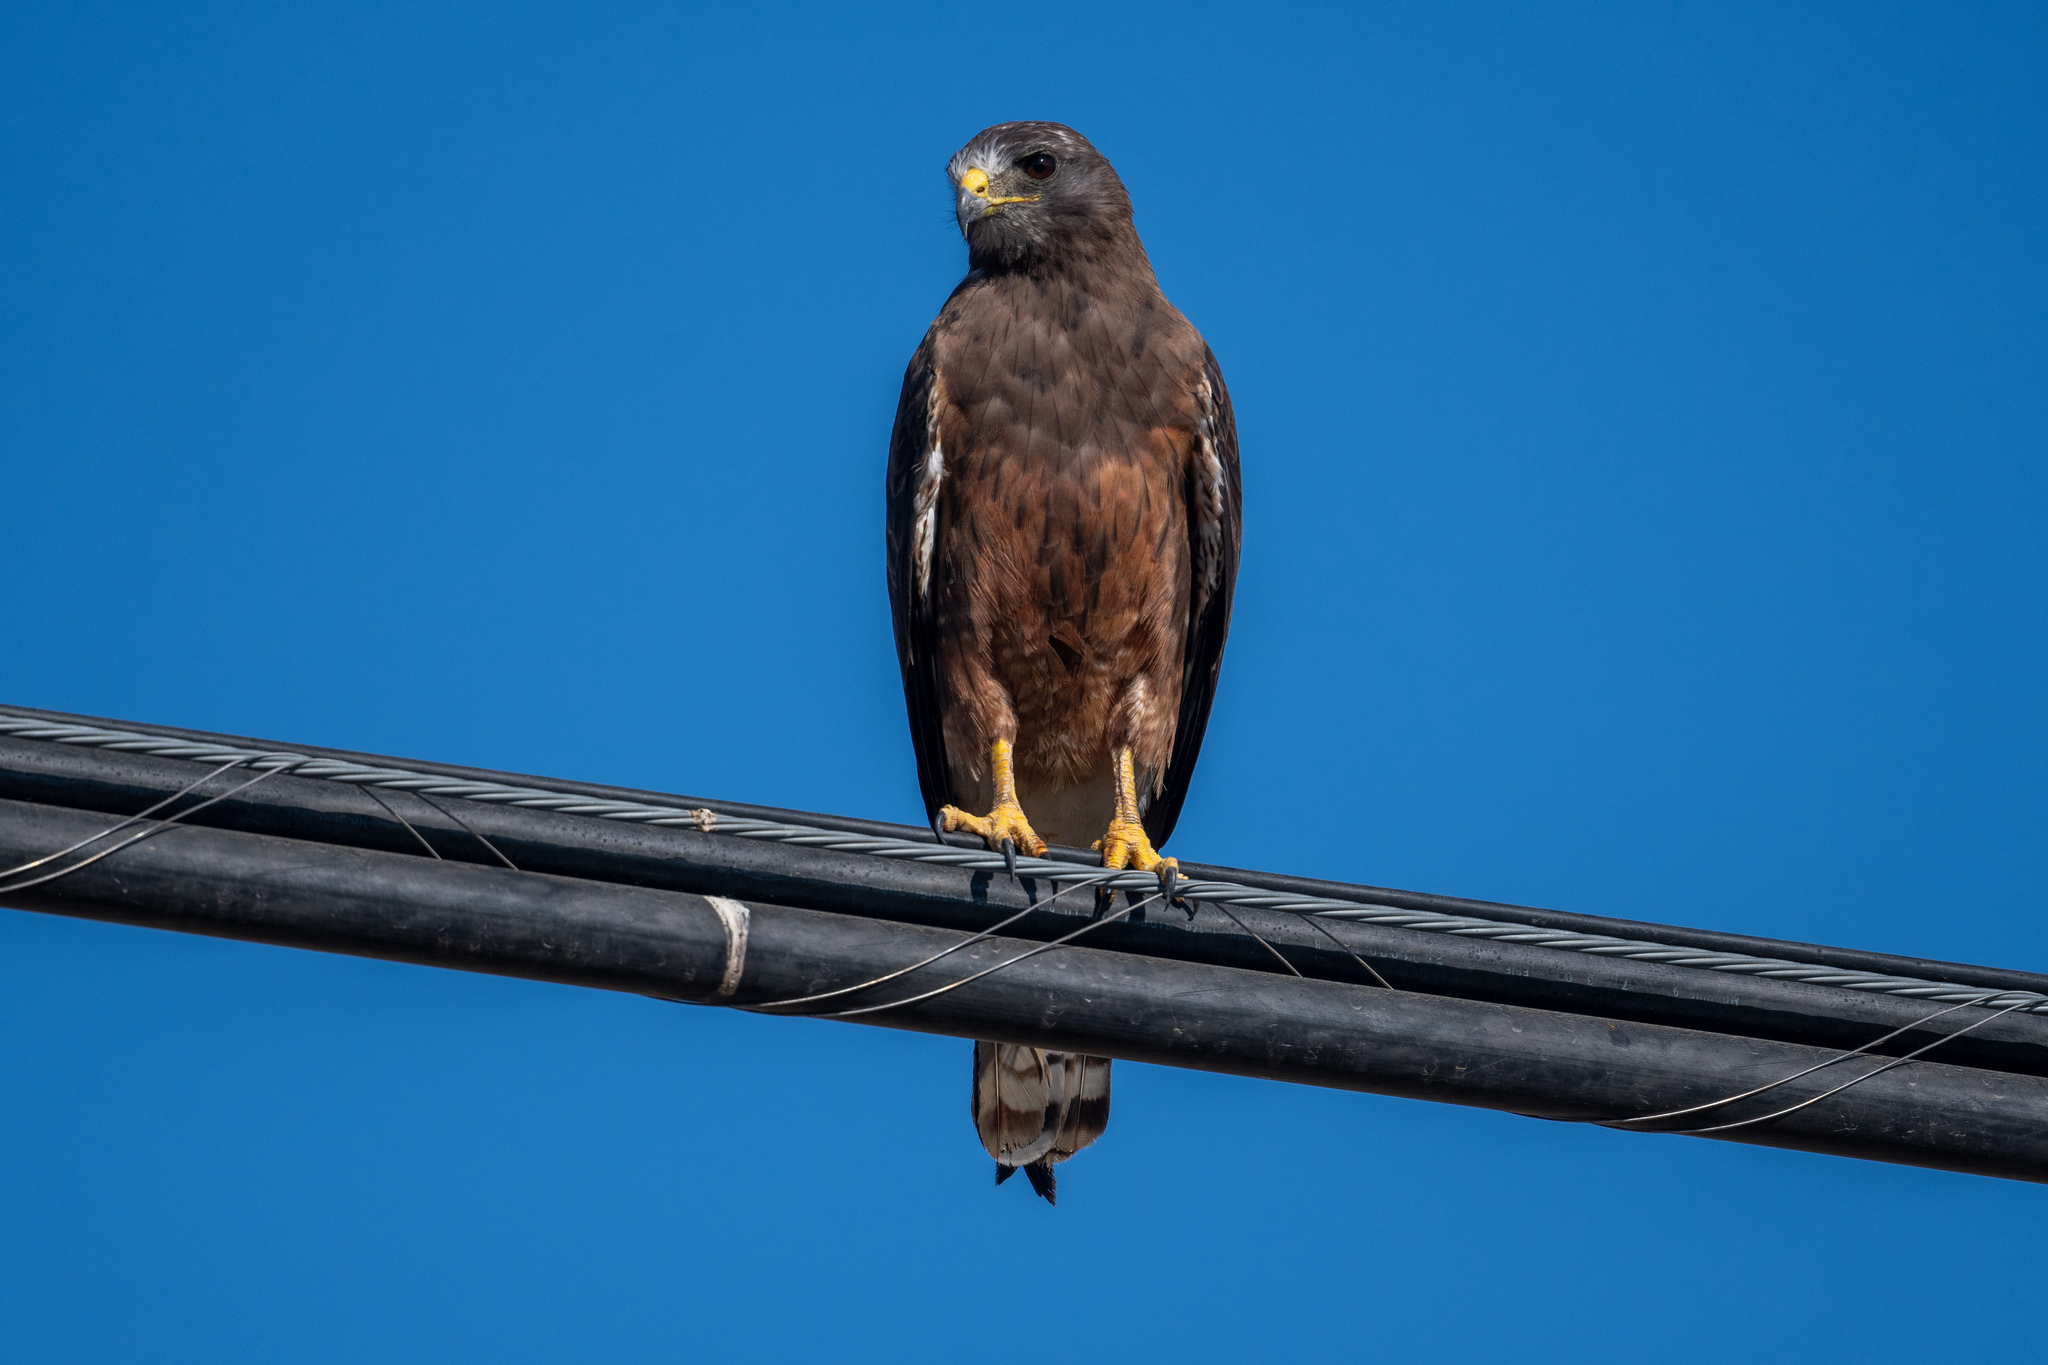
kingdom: Animalia
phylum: Chordata
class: Aves
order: Accipitriformes
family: Accipitridae
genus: Buteo
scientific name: Buteo swainsoni
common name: Swainson's hawk
